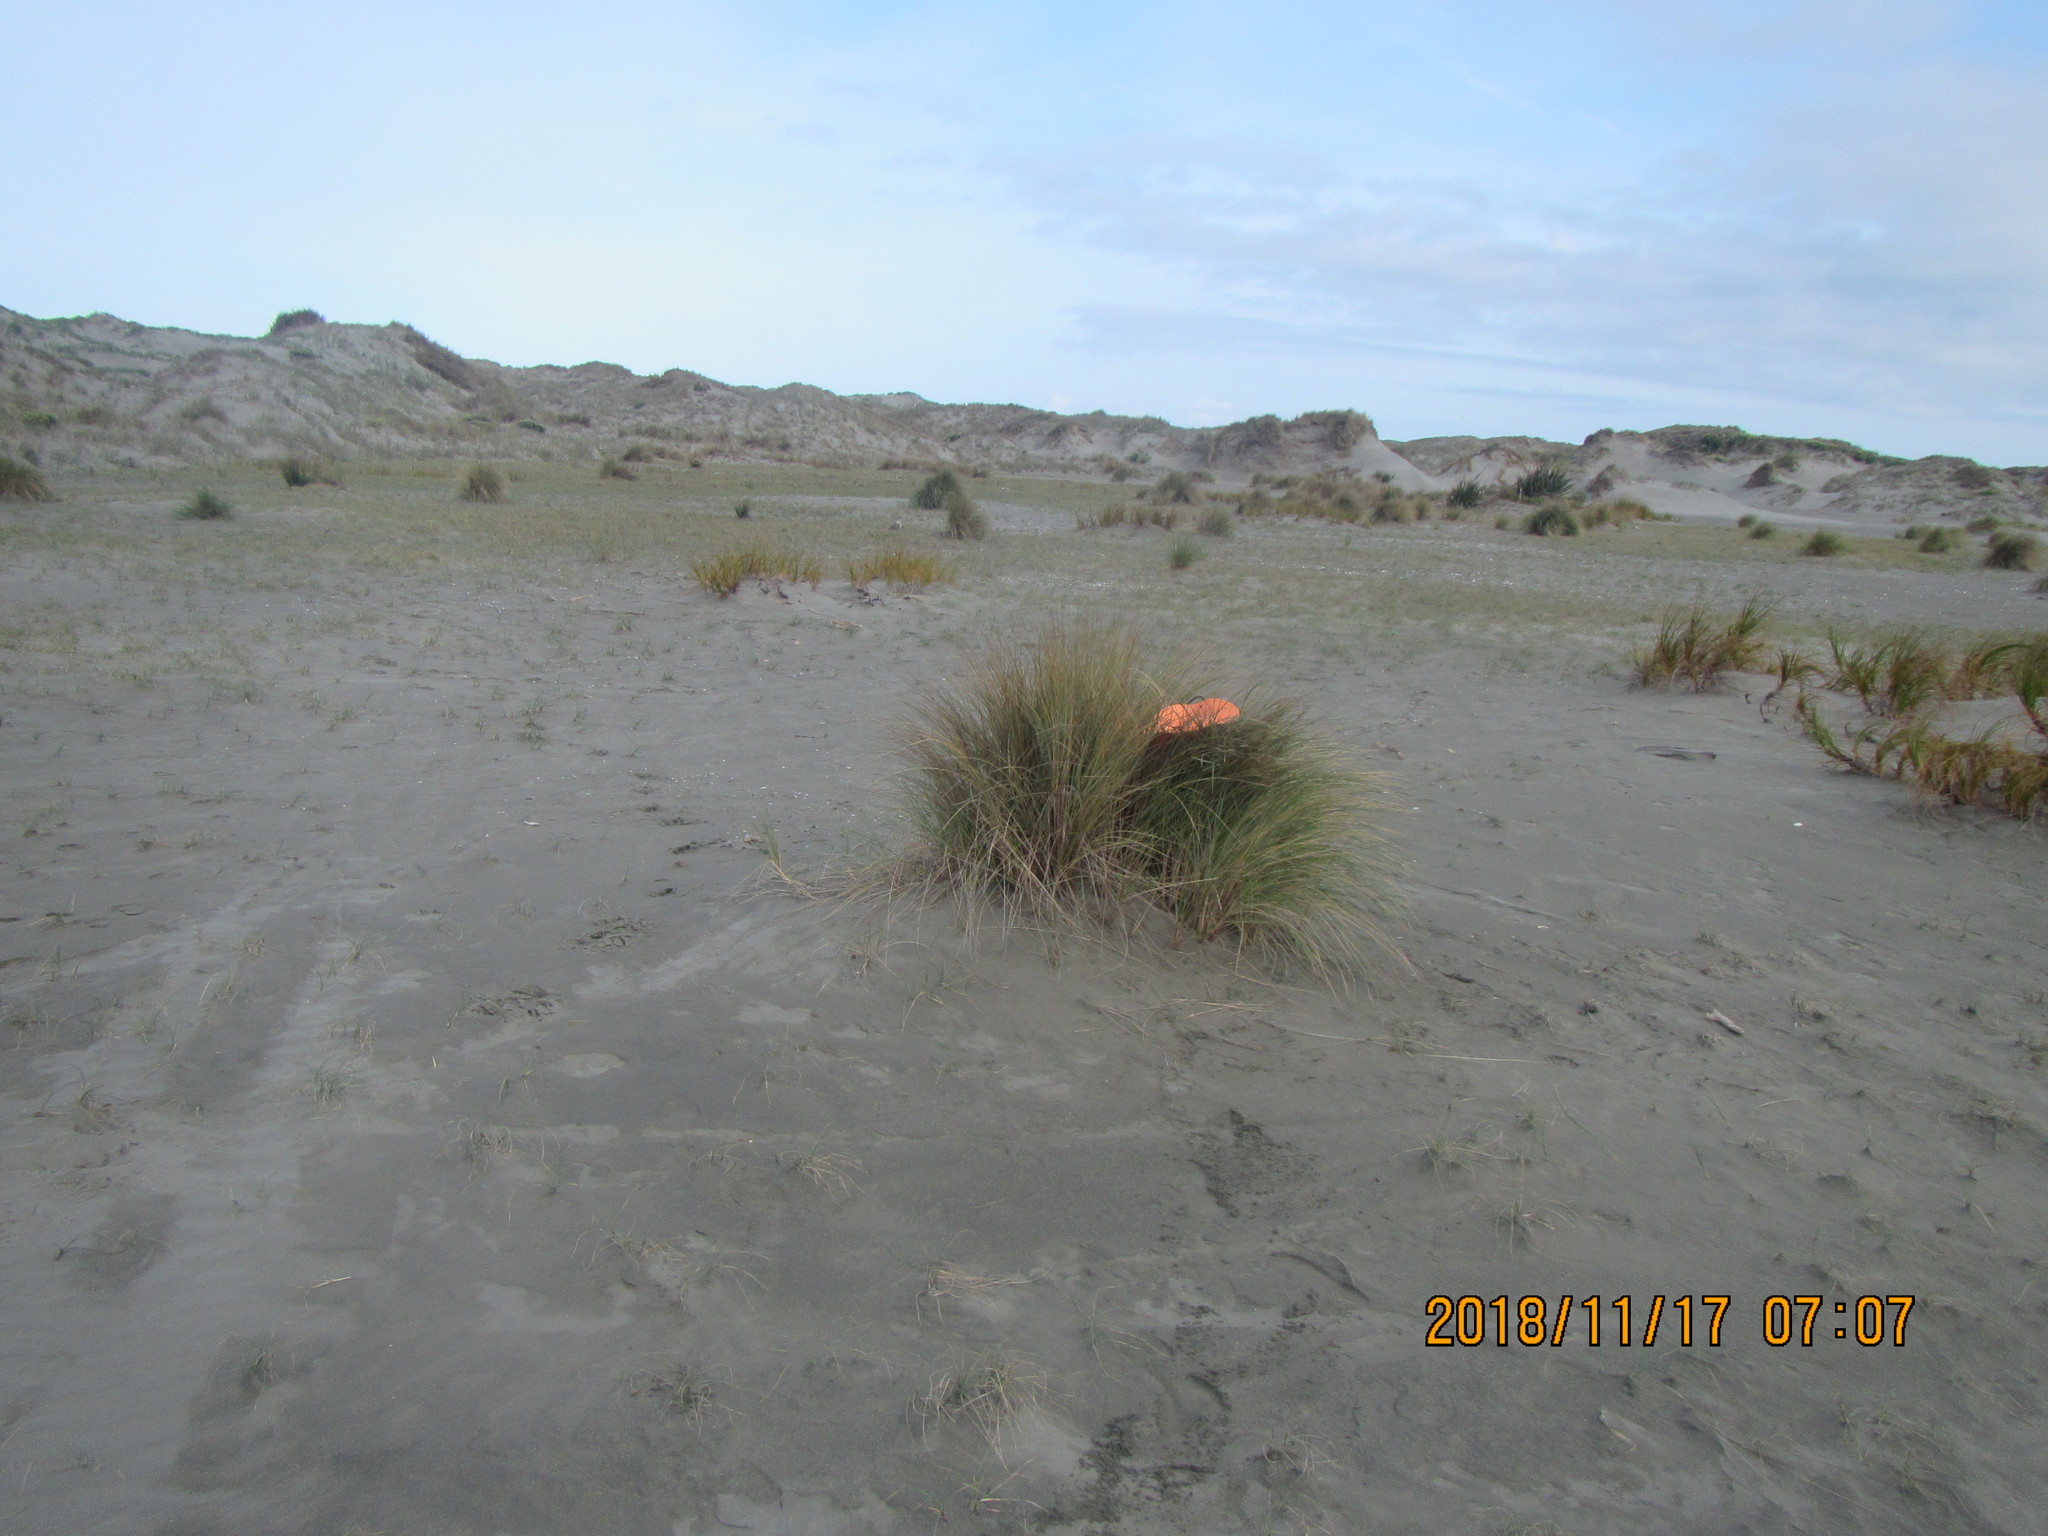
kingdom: Animalia
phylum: Arthropoda
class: Arachnida
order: Araneae
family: Thomisidae
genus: Sidymella
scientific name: Sidymella trapezia
